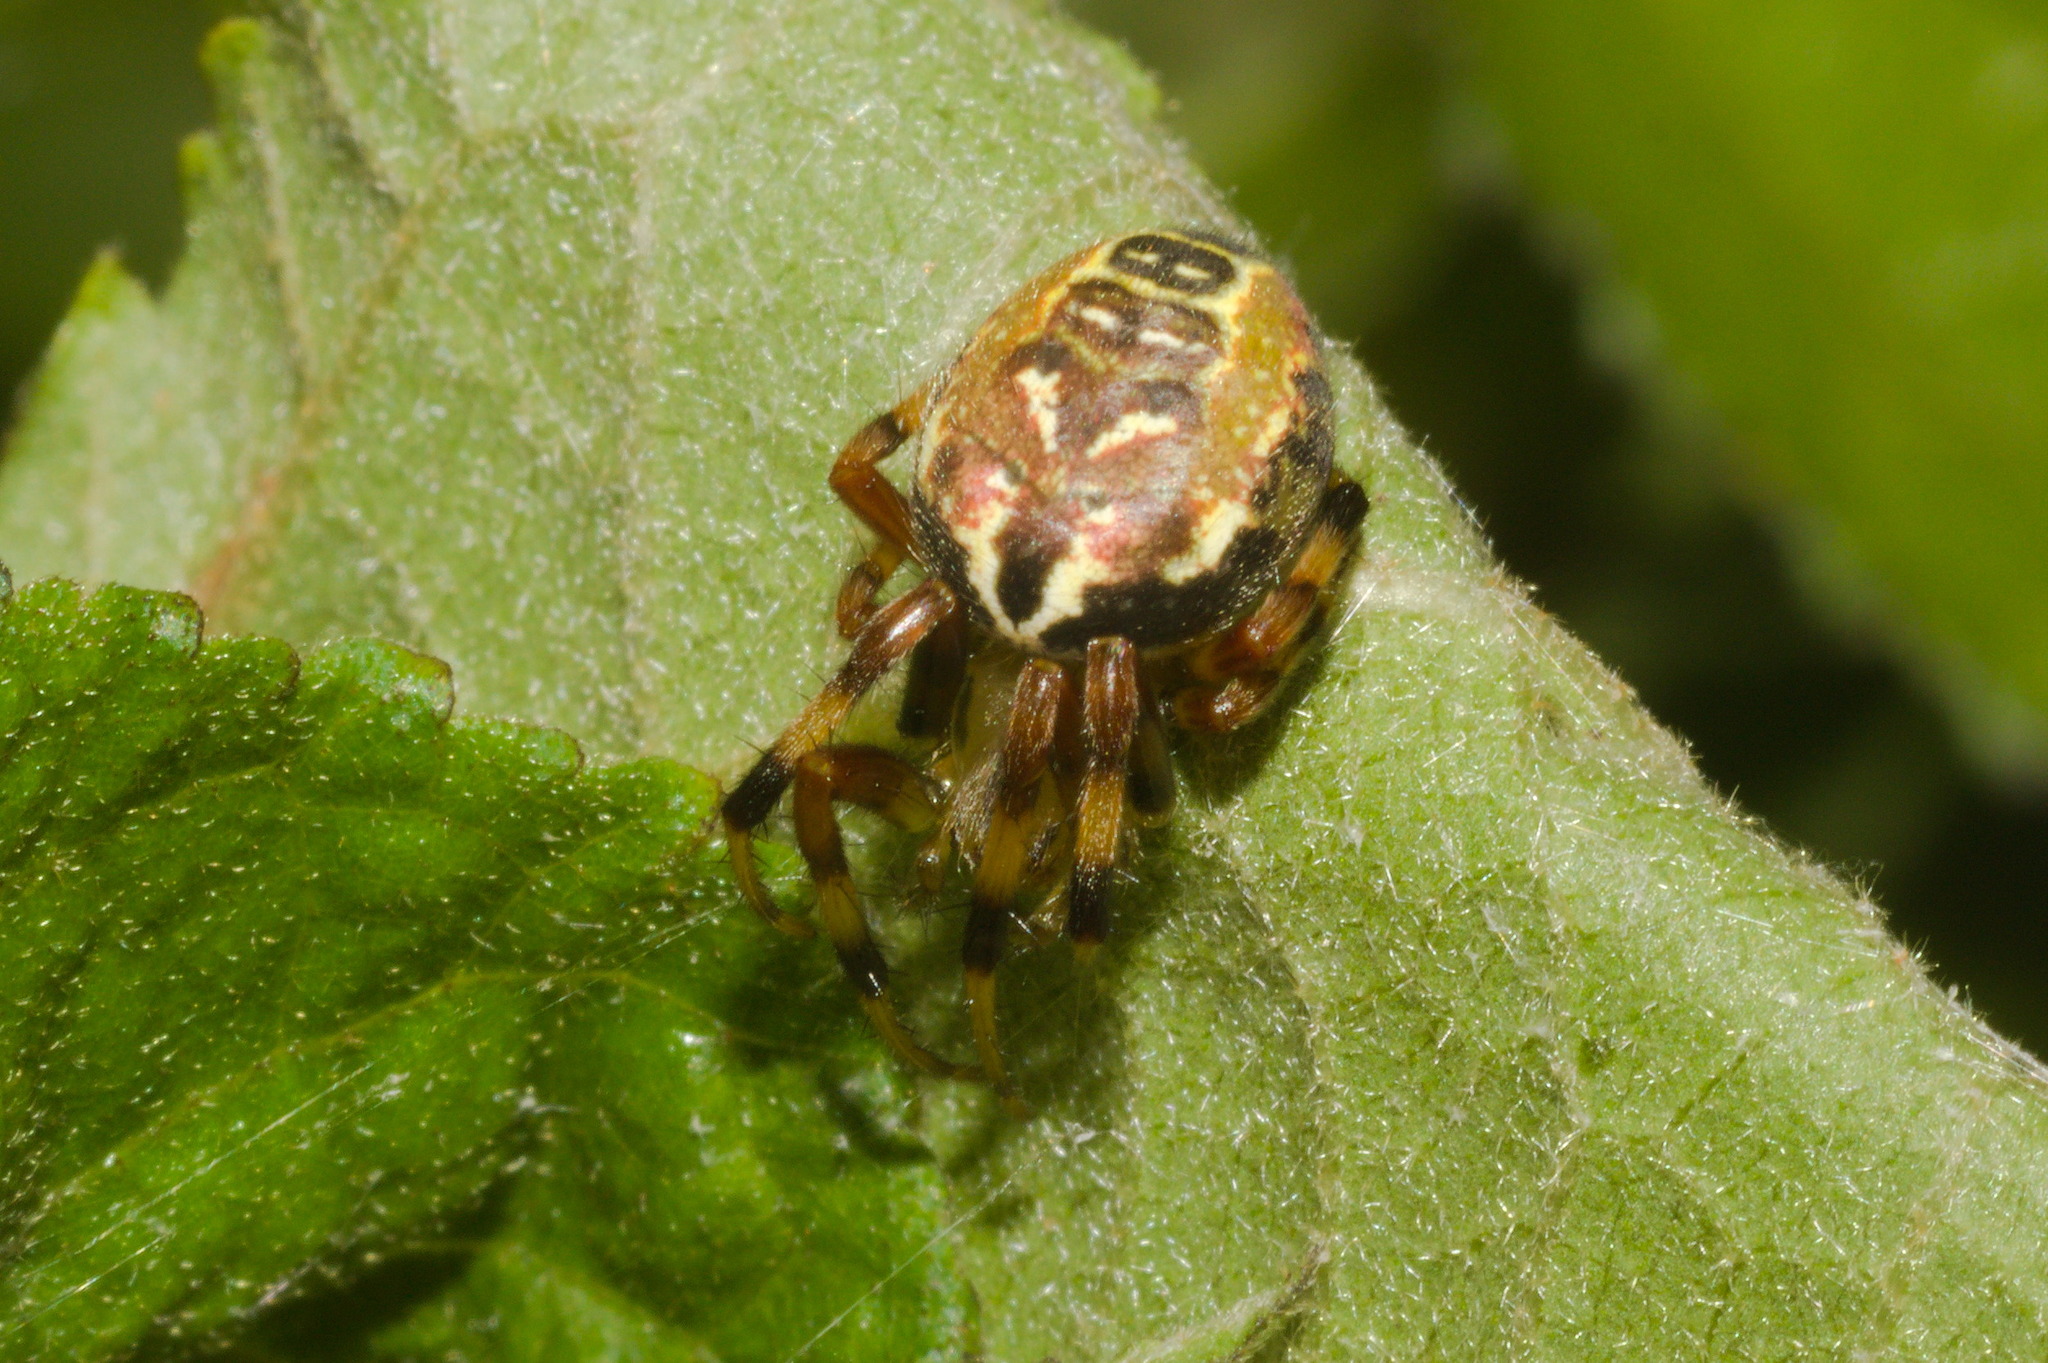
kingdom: Animalia
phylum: Arthropoda
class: Arachnida
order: Araneae
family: Araneidae
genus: Araneus
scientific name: Araneus venatrix
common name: Orb weavers
